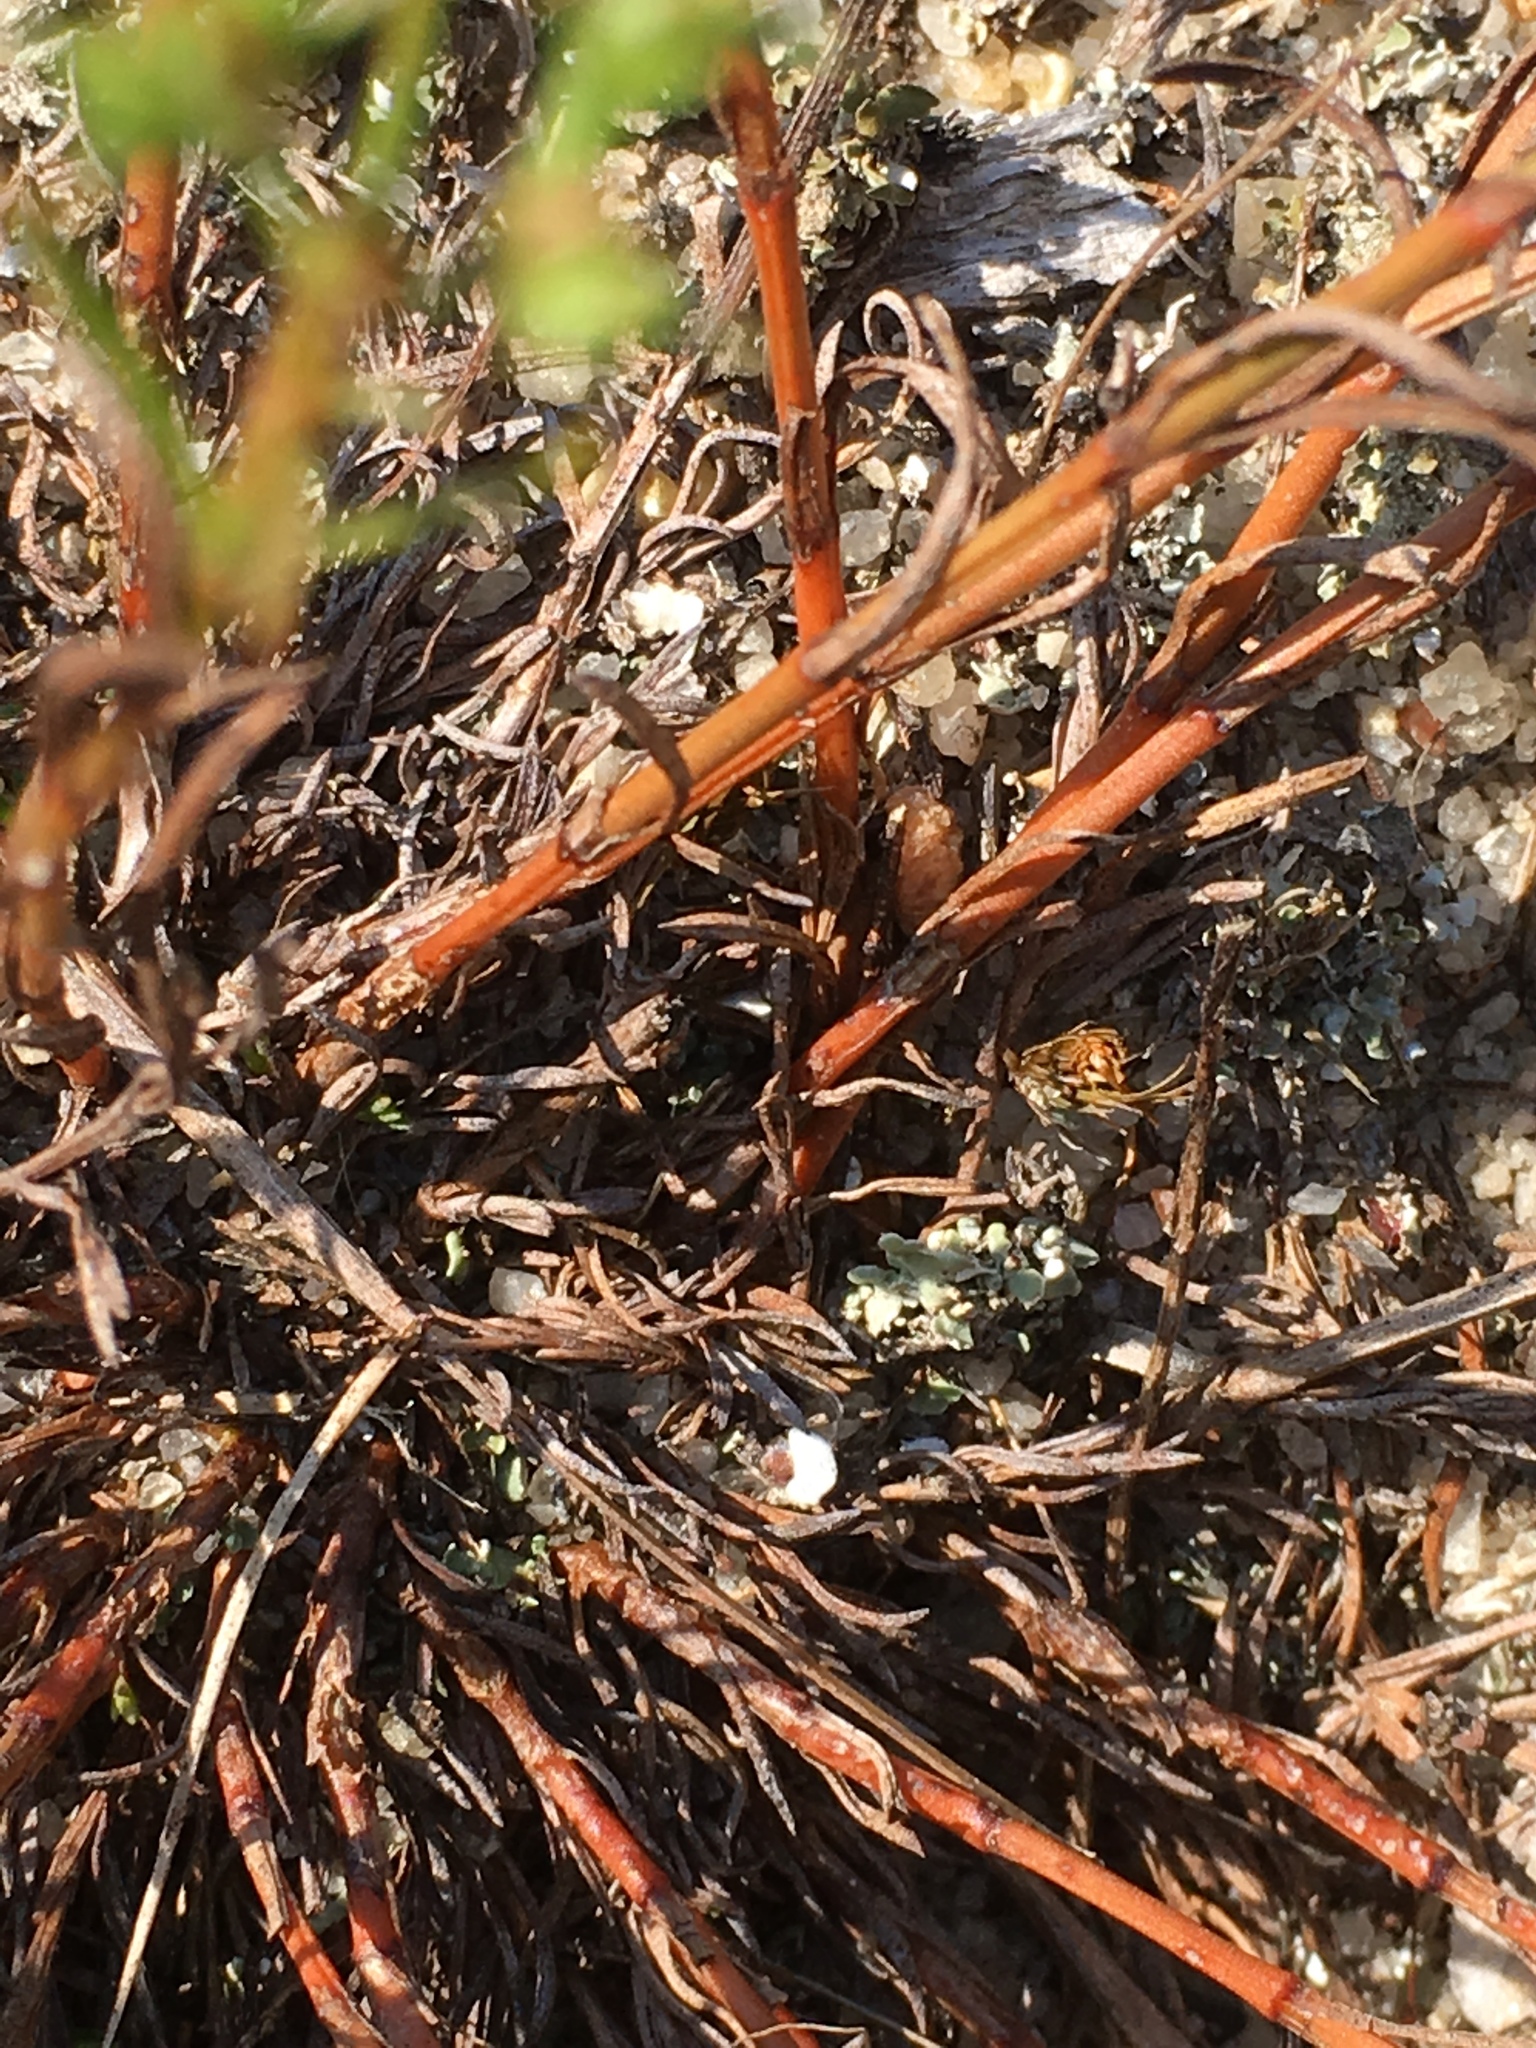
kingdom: Plantae
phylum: Tracheophyta
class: Magnoliopsida
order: Lamiales
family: Tetrachondraceae
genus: Polypremum
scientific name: Polypremum procumbens
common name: Juniper-leaf
